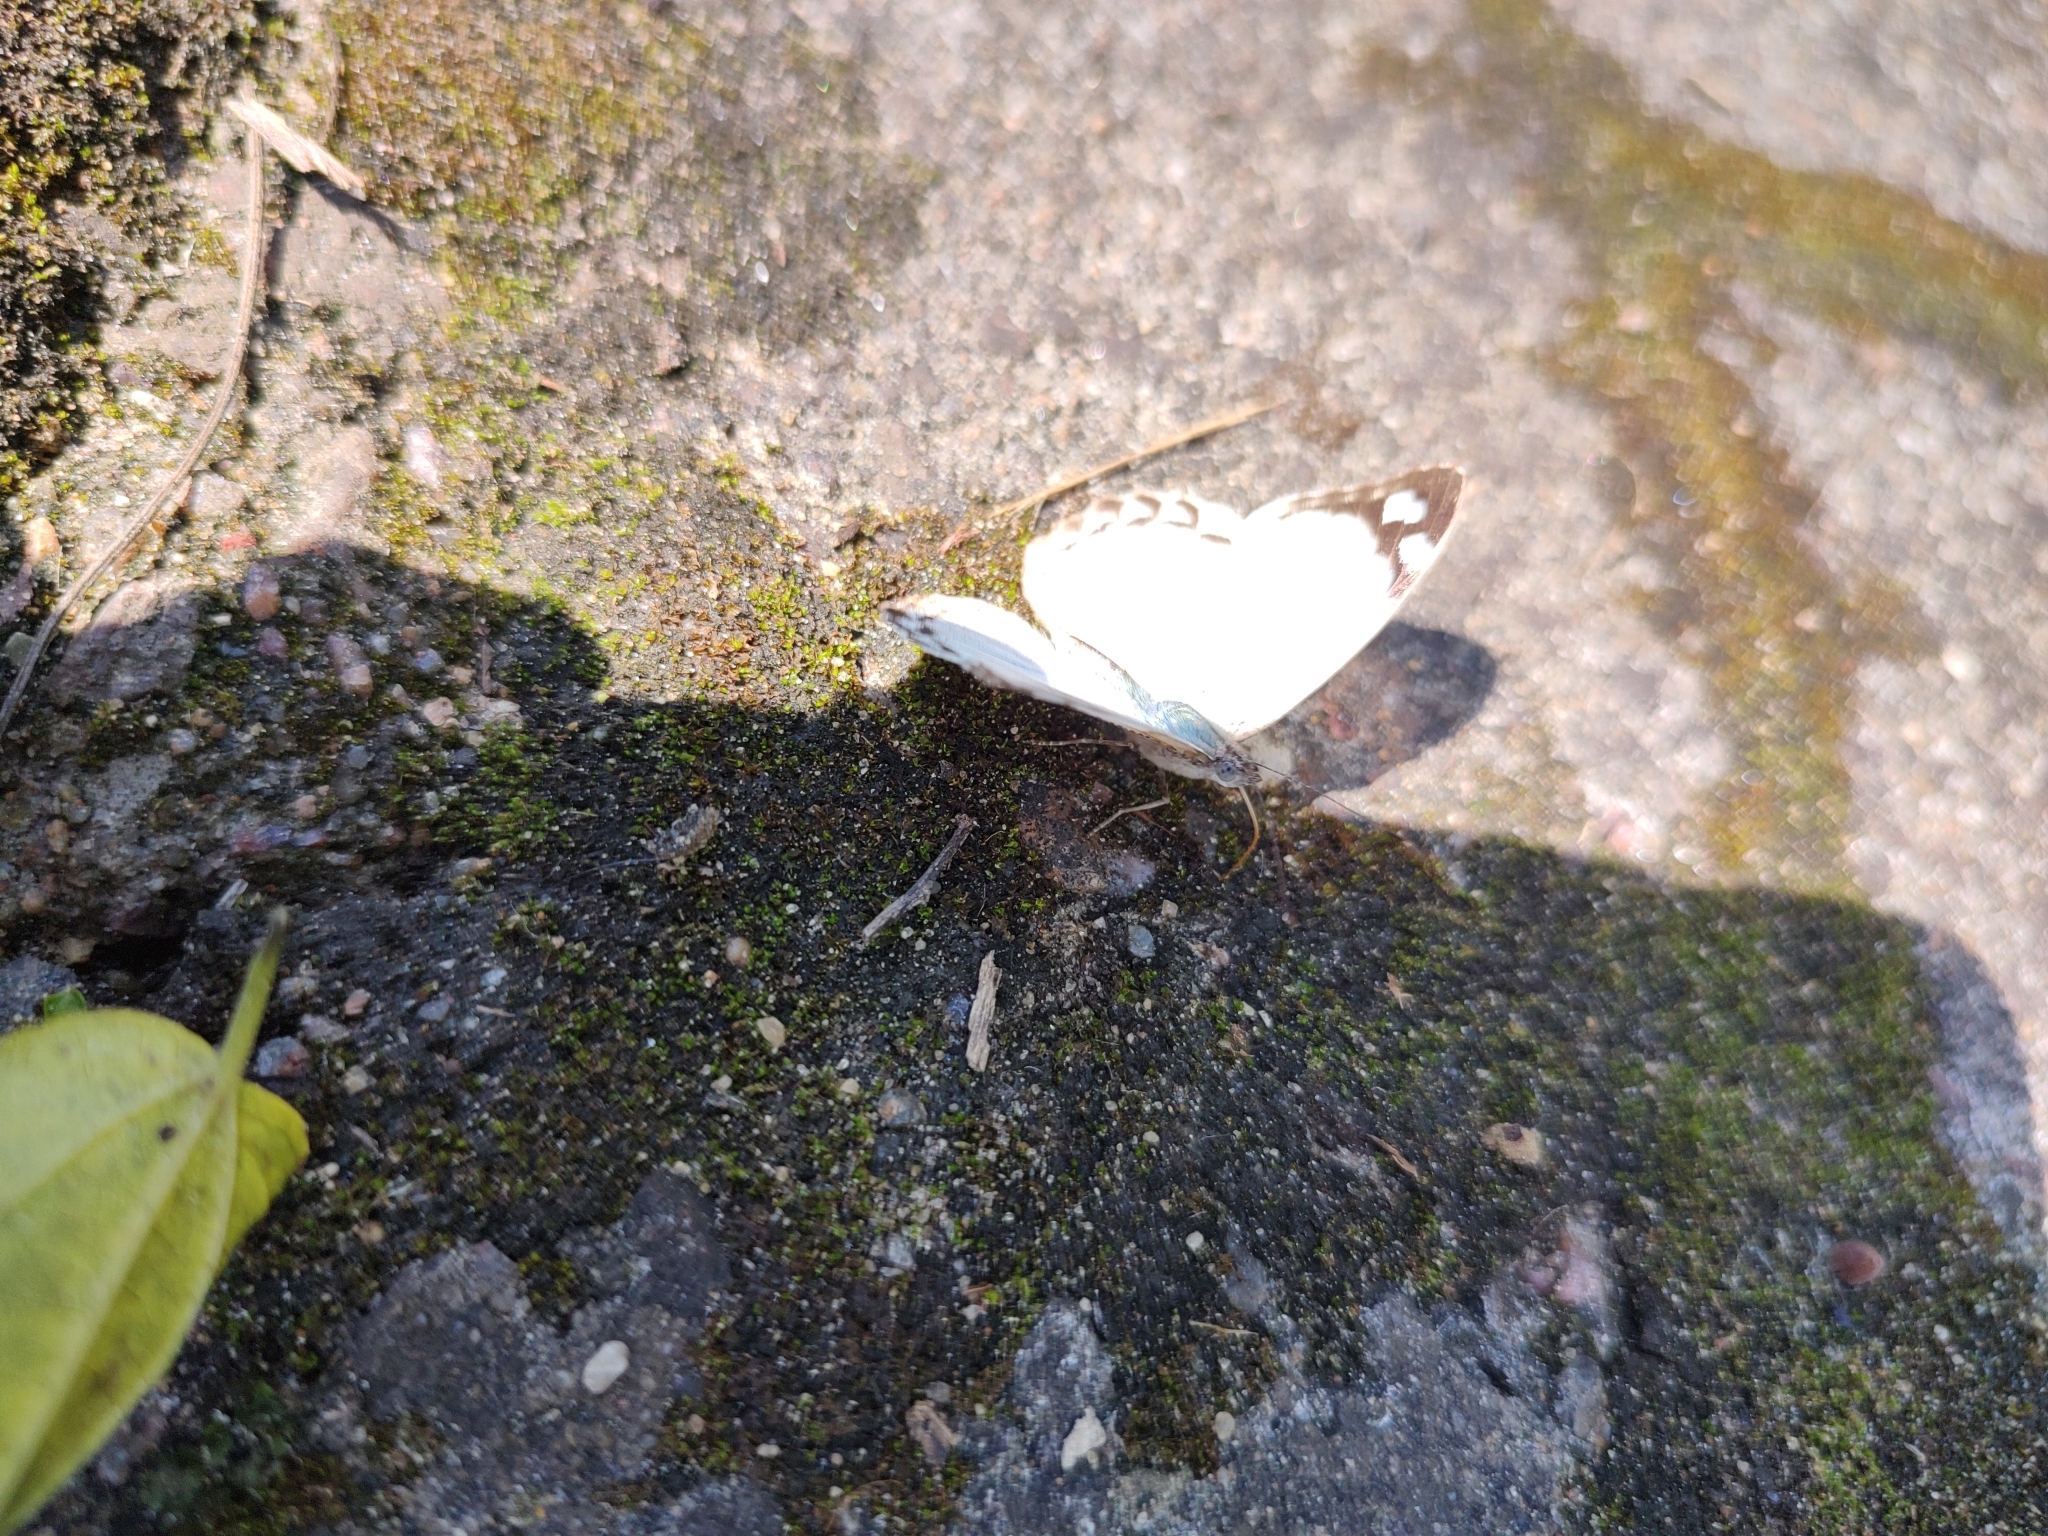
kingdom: Animalia
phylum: Arthropoda
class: Insecta
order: Lepidoptera
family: Nymphalidae
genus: Eunica
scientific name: Eunica eburnea
